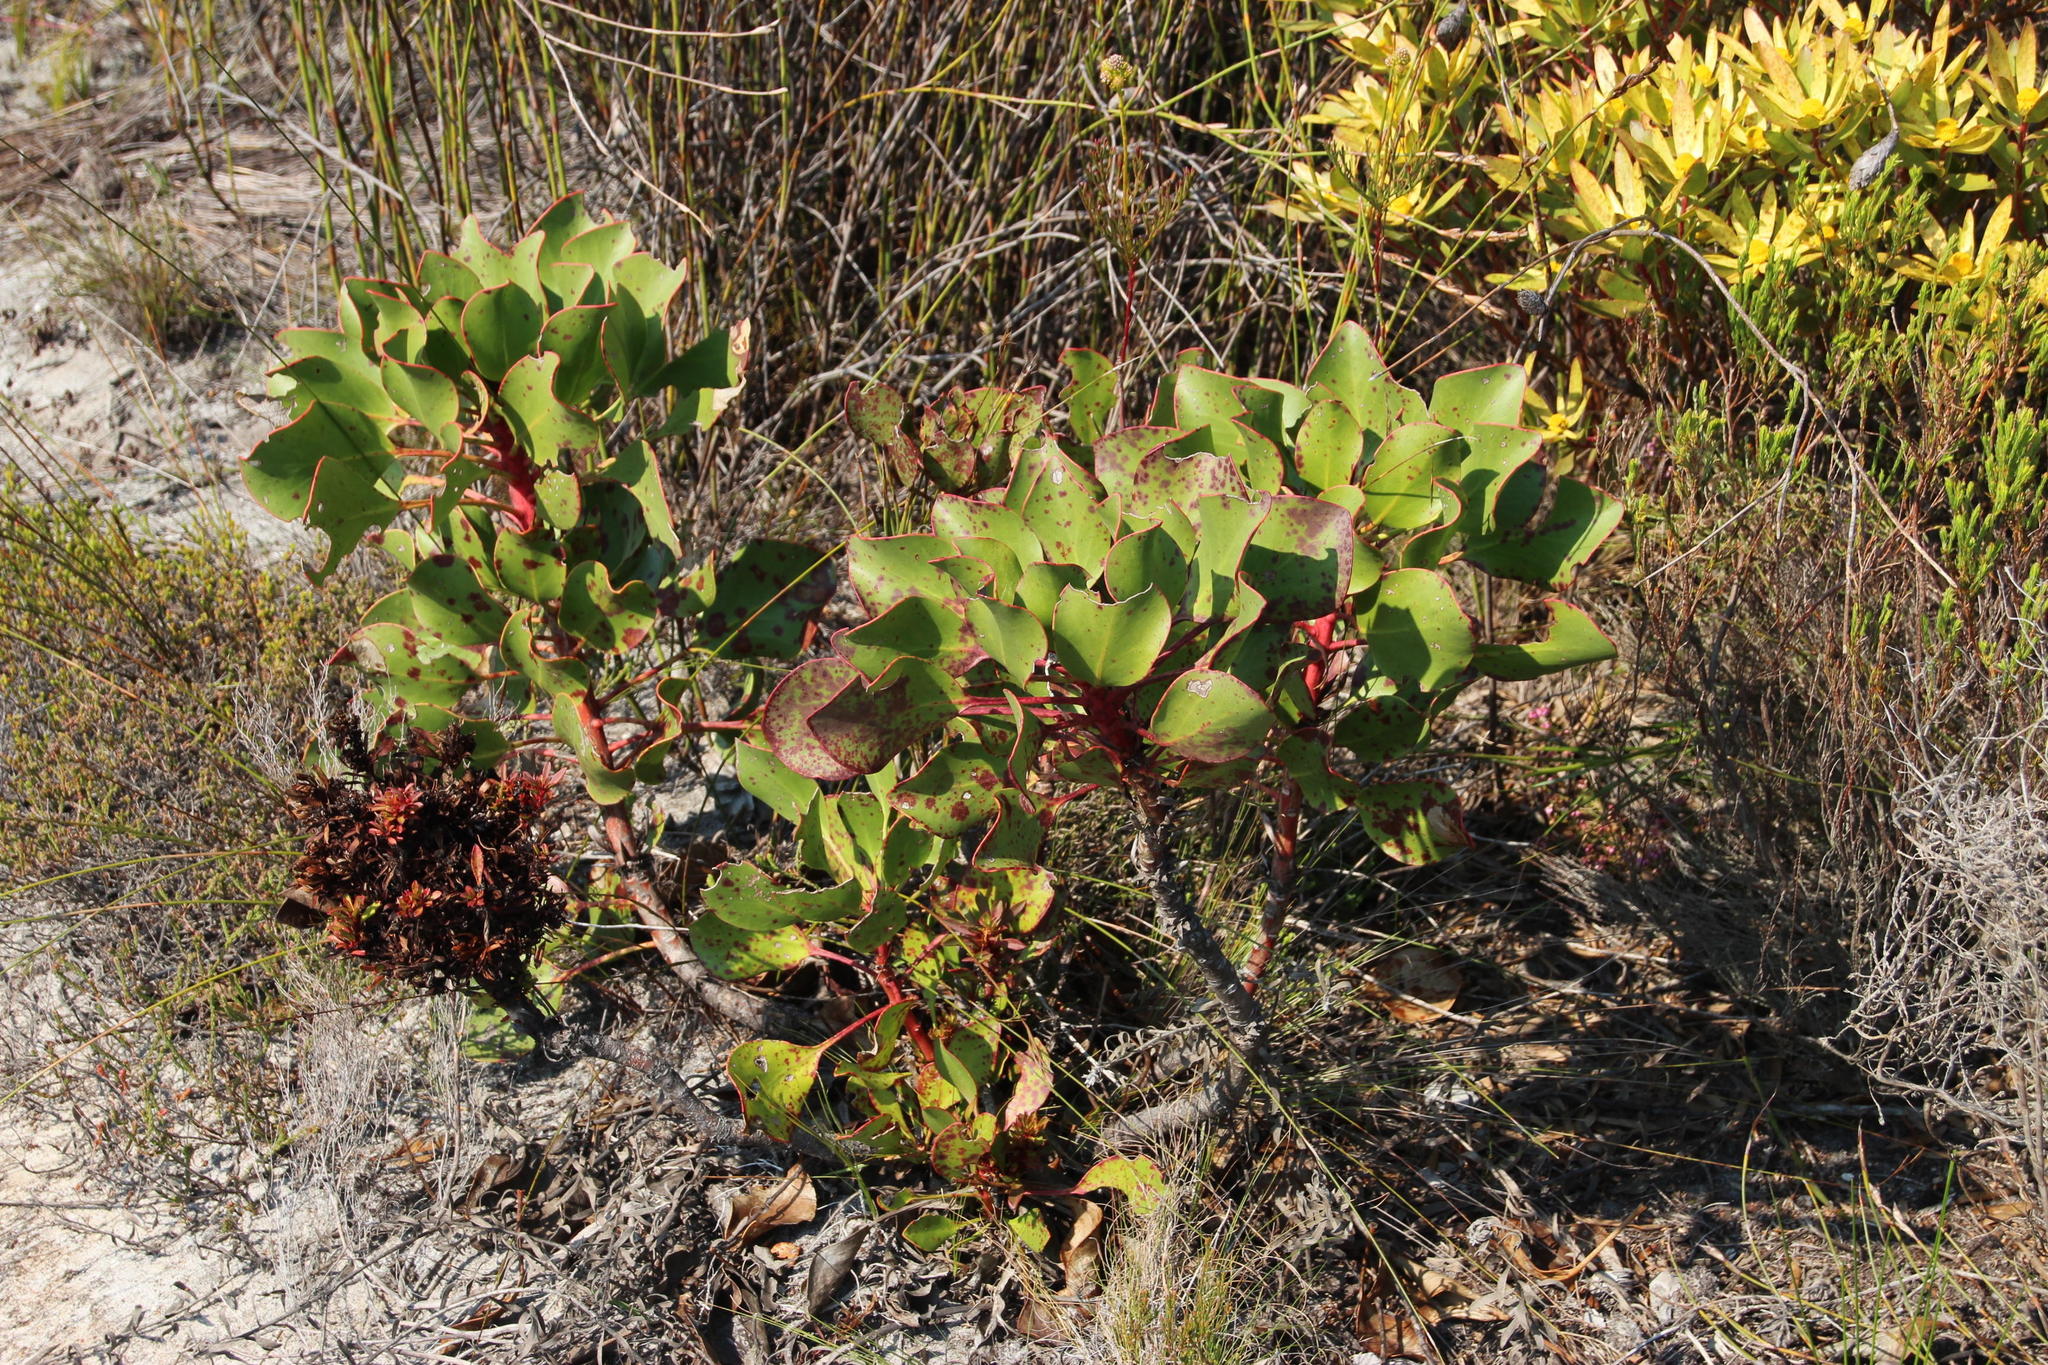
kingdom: Plantae
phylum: Tracheophyta
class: Magnoliopsida
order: Proteales
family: Proteaceae
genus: Protea
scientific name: Protea cynaroides
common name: King protea
